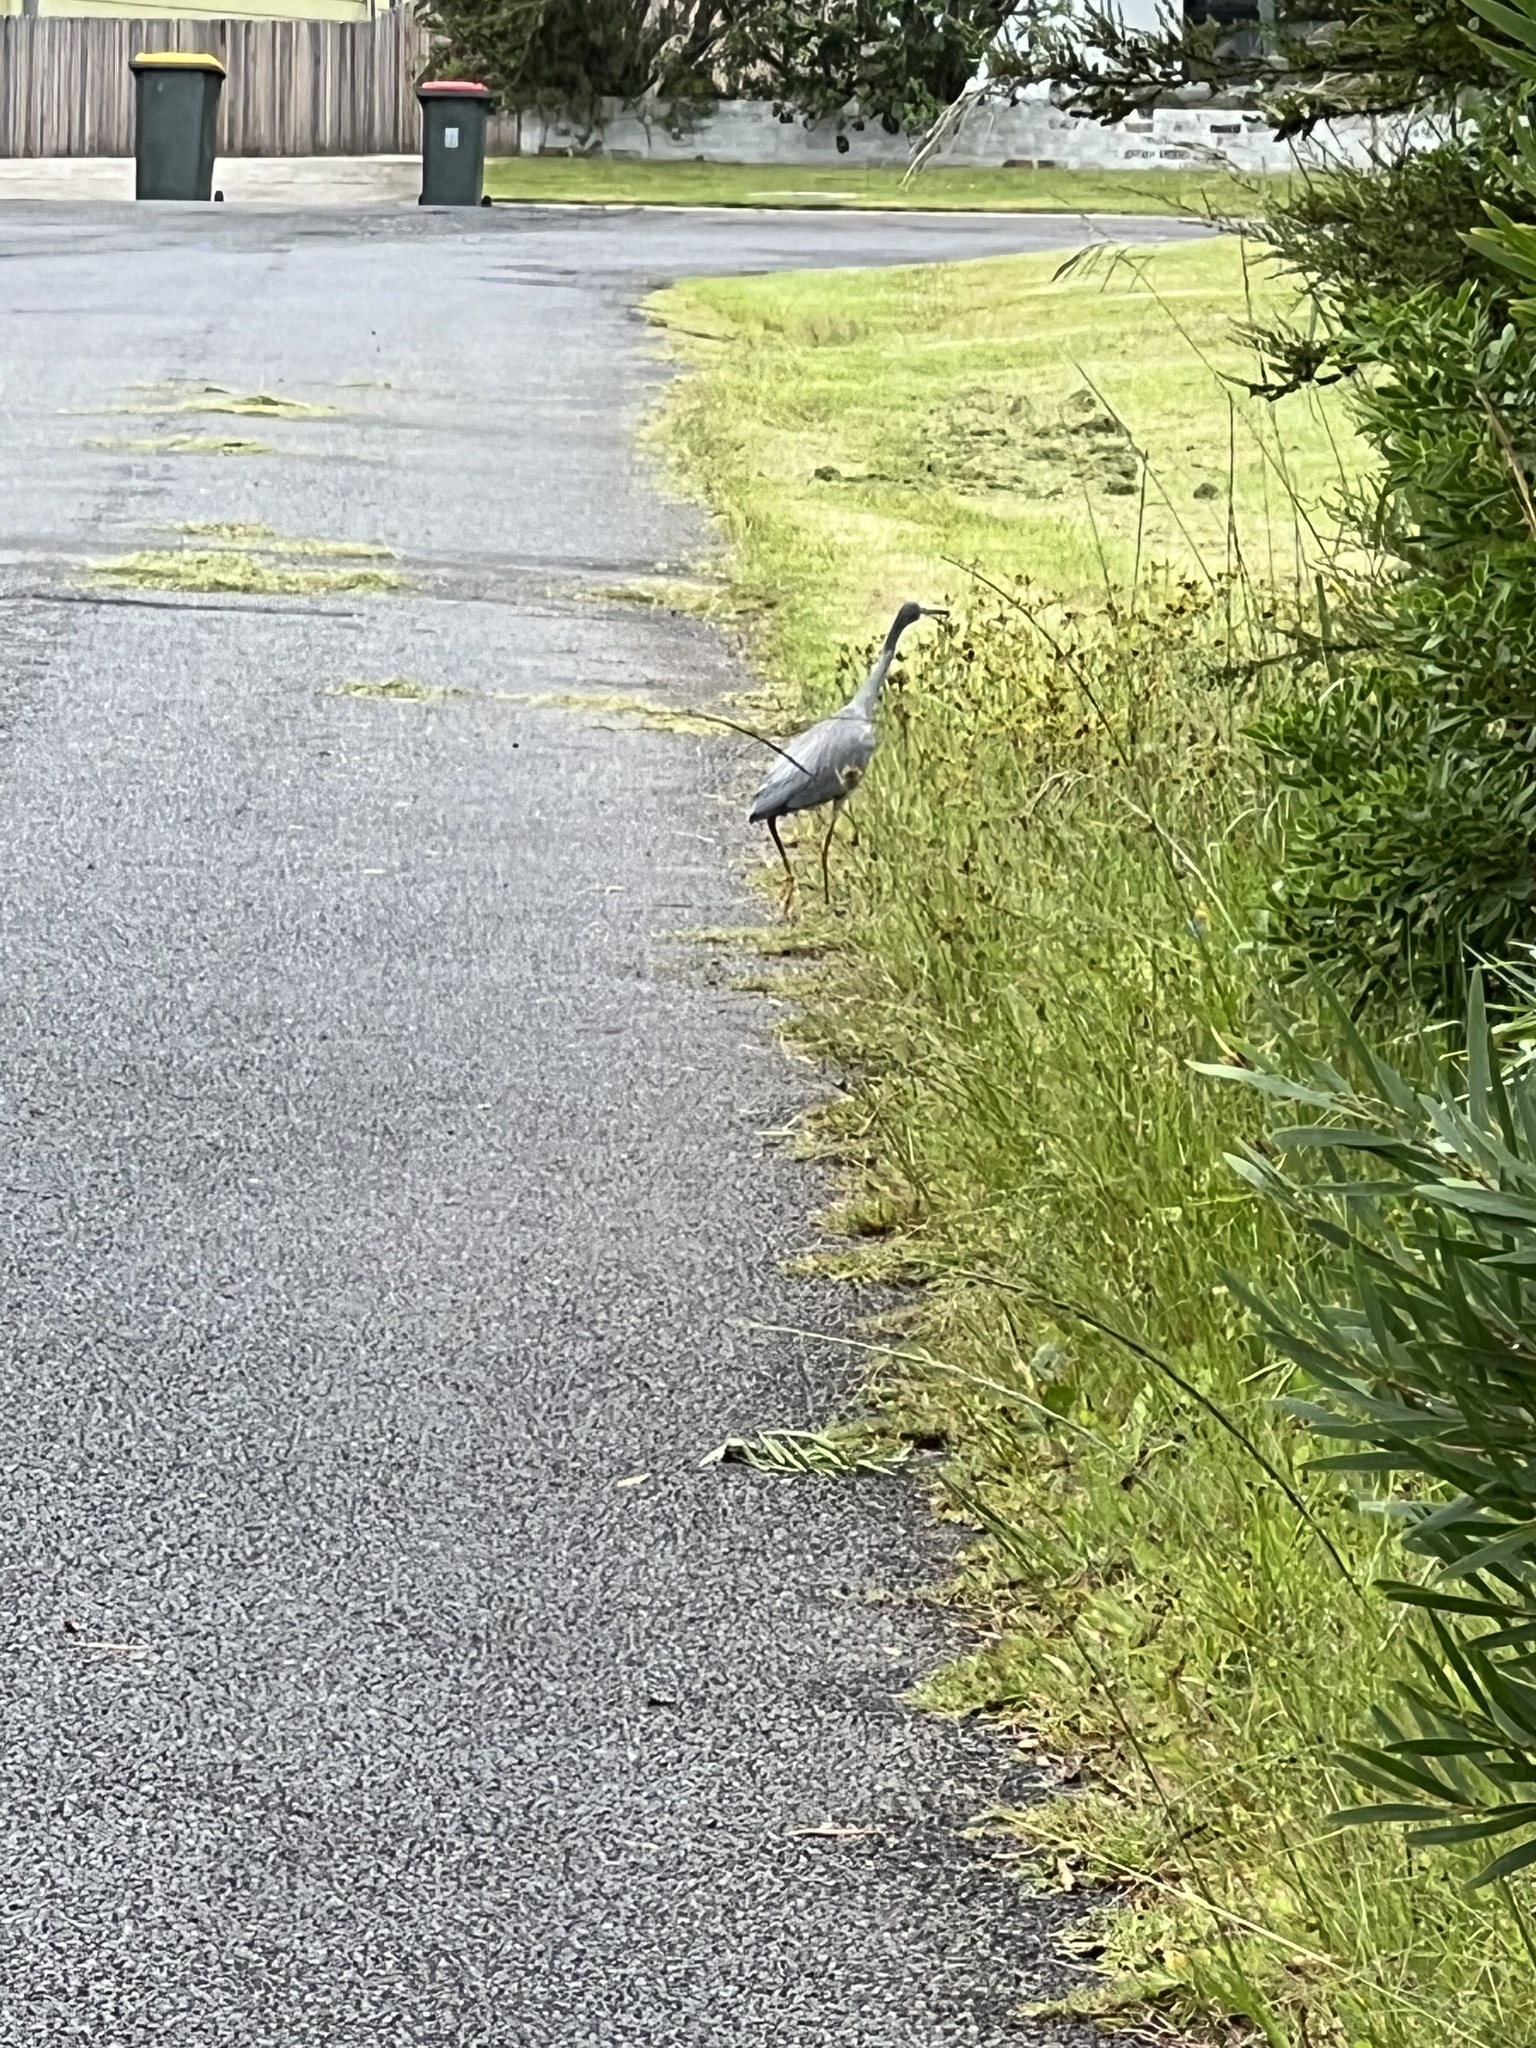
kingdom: Animalia
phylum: Chordata
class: Aves
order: Pelecaniformes
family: Ardeidae
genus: Egretta
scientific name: Egretta novaehollandiae
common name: White-faced heron
